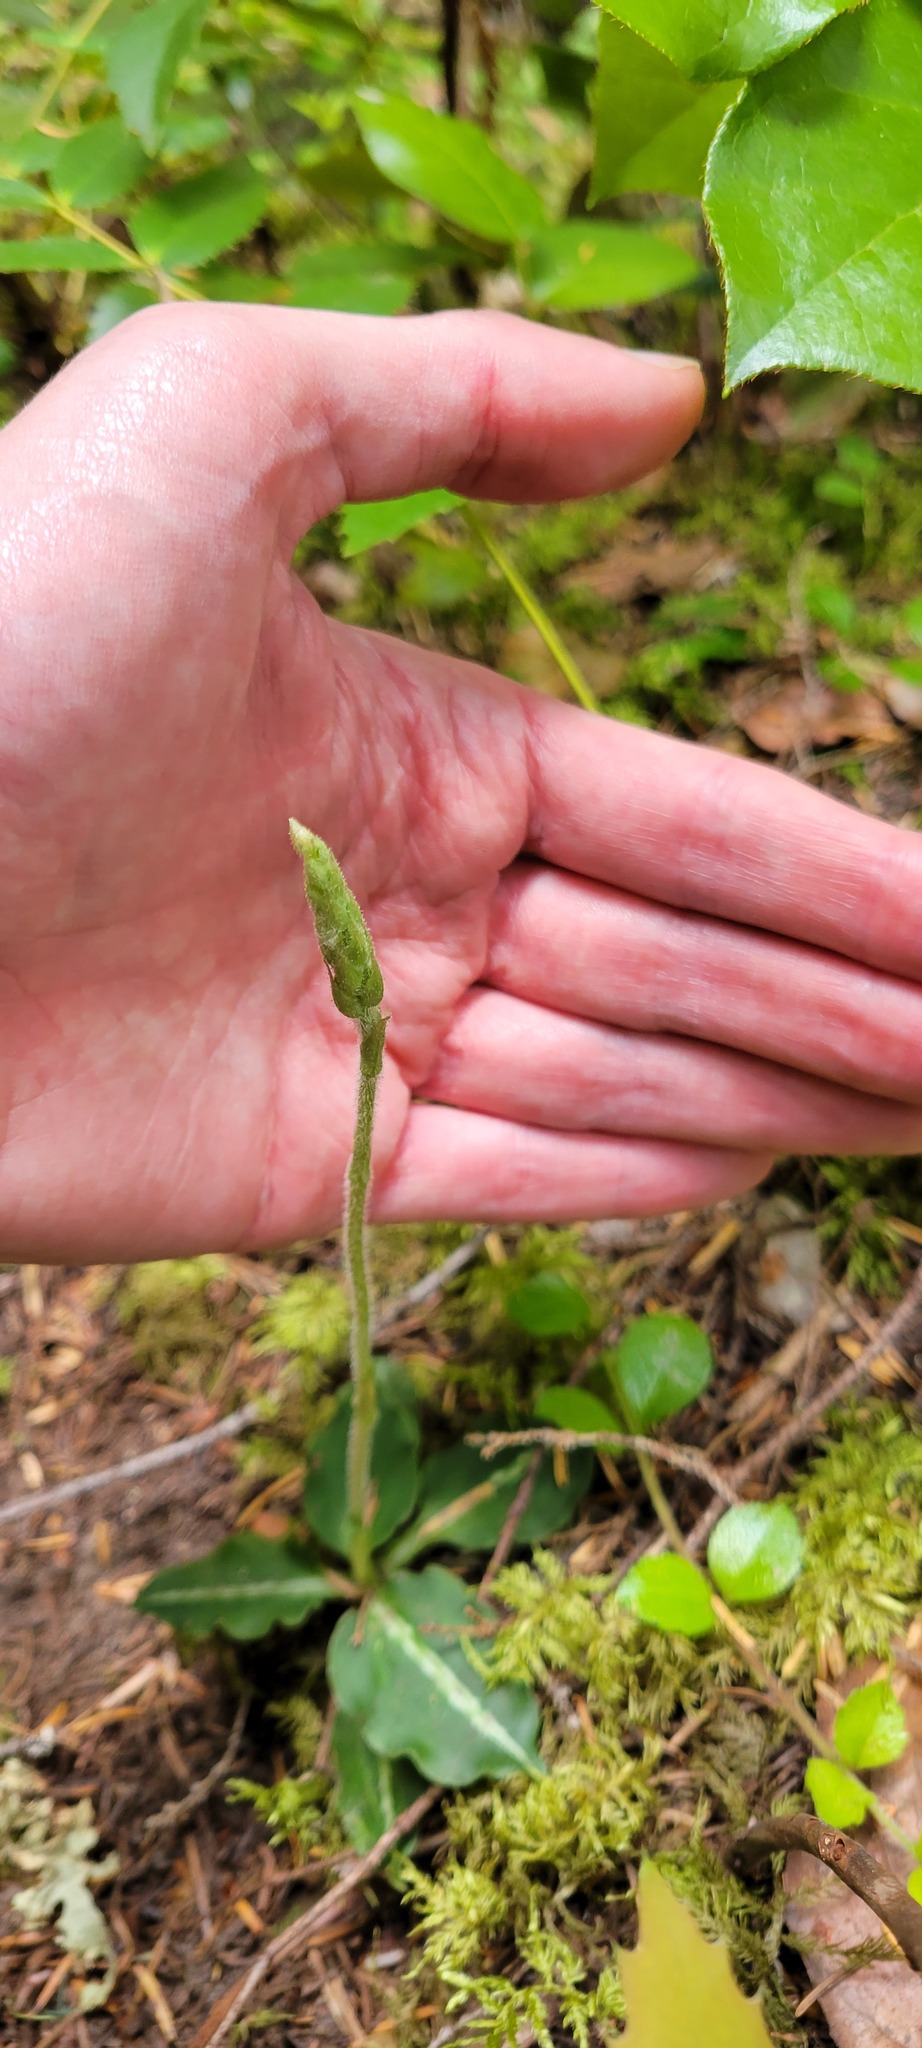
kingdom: Plantae
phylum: Tracheophyta
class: Liliopsida
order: Asparagales
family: Orchidaceae
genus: Goodyera
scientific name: Goodyera oblongifolia
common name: Giant rattlesnake-plantain
